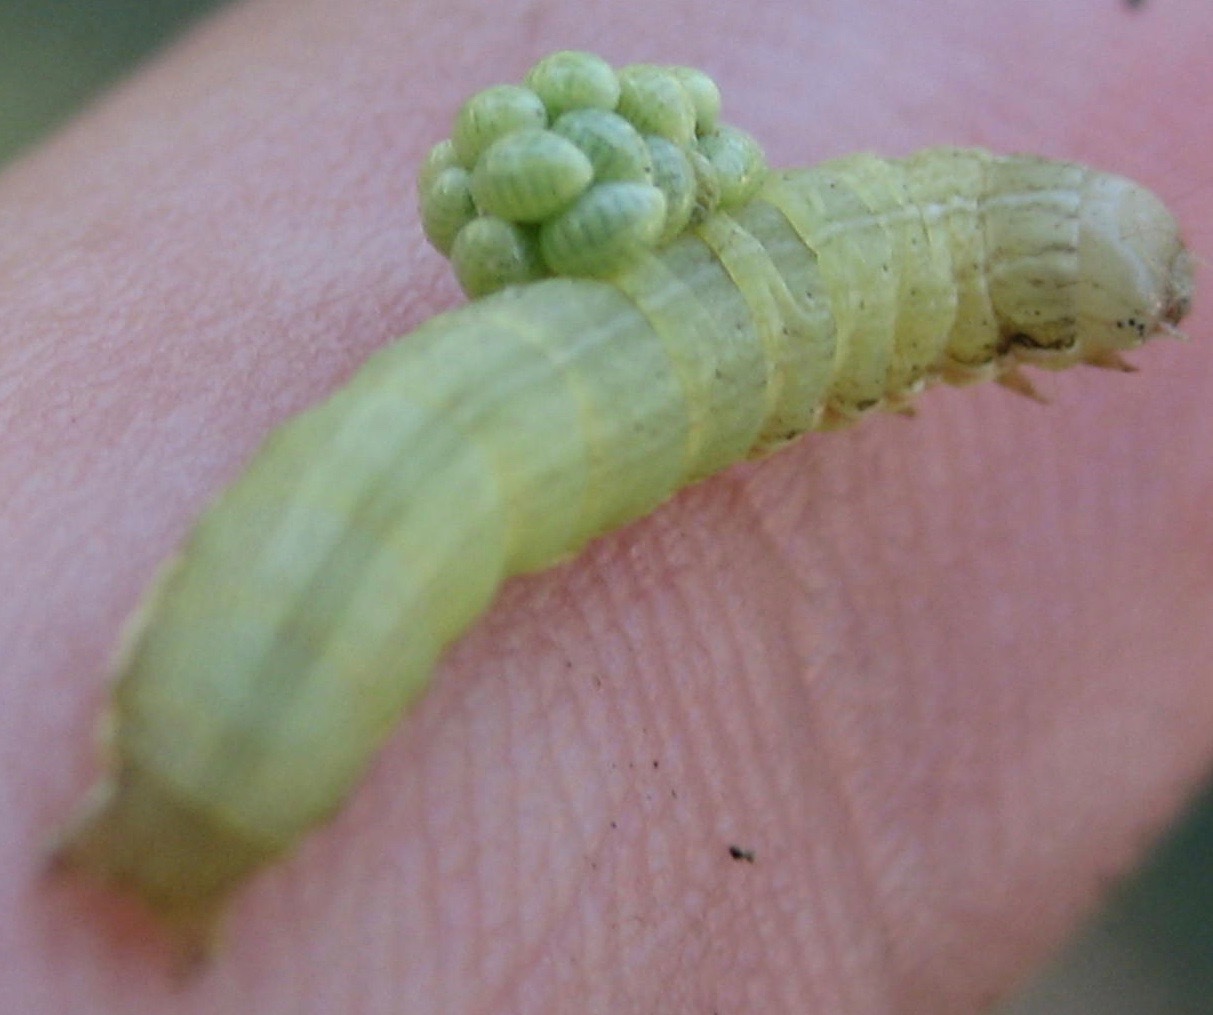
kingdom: Animalia
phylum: Arthropoda
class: Insecta
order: Hymenoptera
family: Eulophidae
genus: Euplectrus
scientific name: Euplectrus
